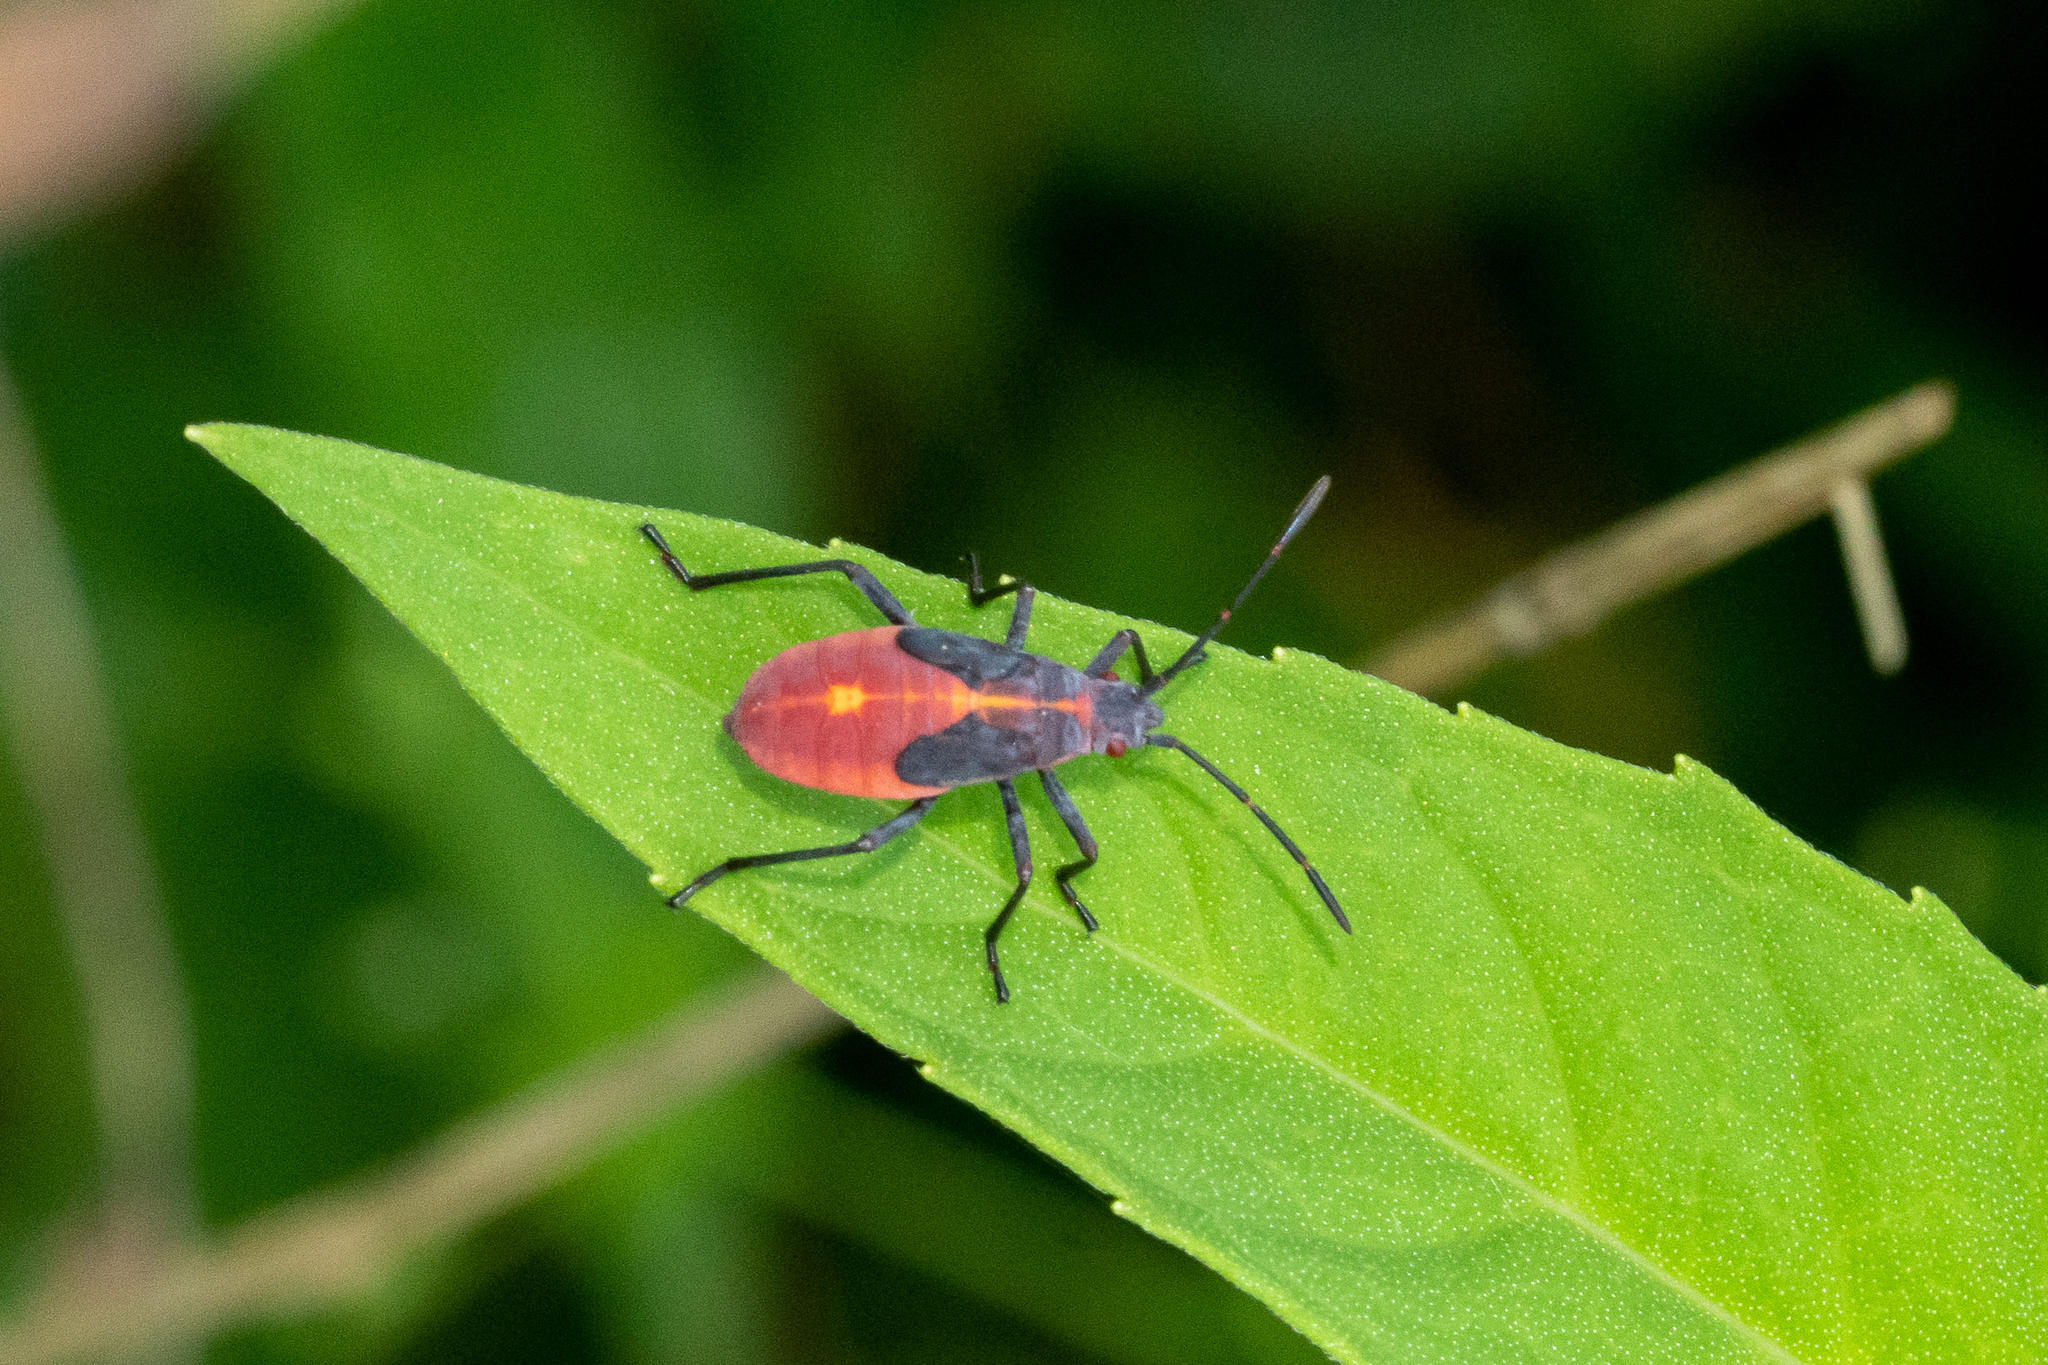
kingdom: Animalia
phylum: Arthropoda
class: Insecta
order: Hemiptera
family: Rhopalidae
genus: Boisea
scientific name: Boisea trivittata
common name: Boxelder bug
